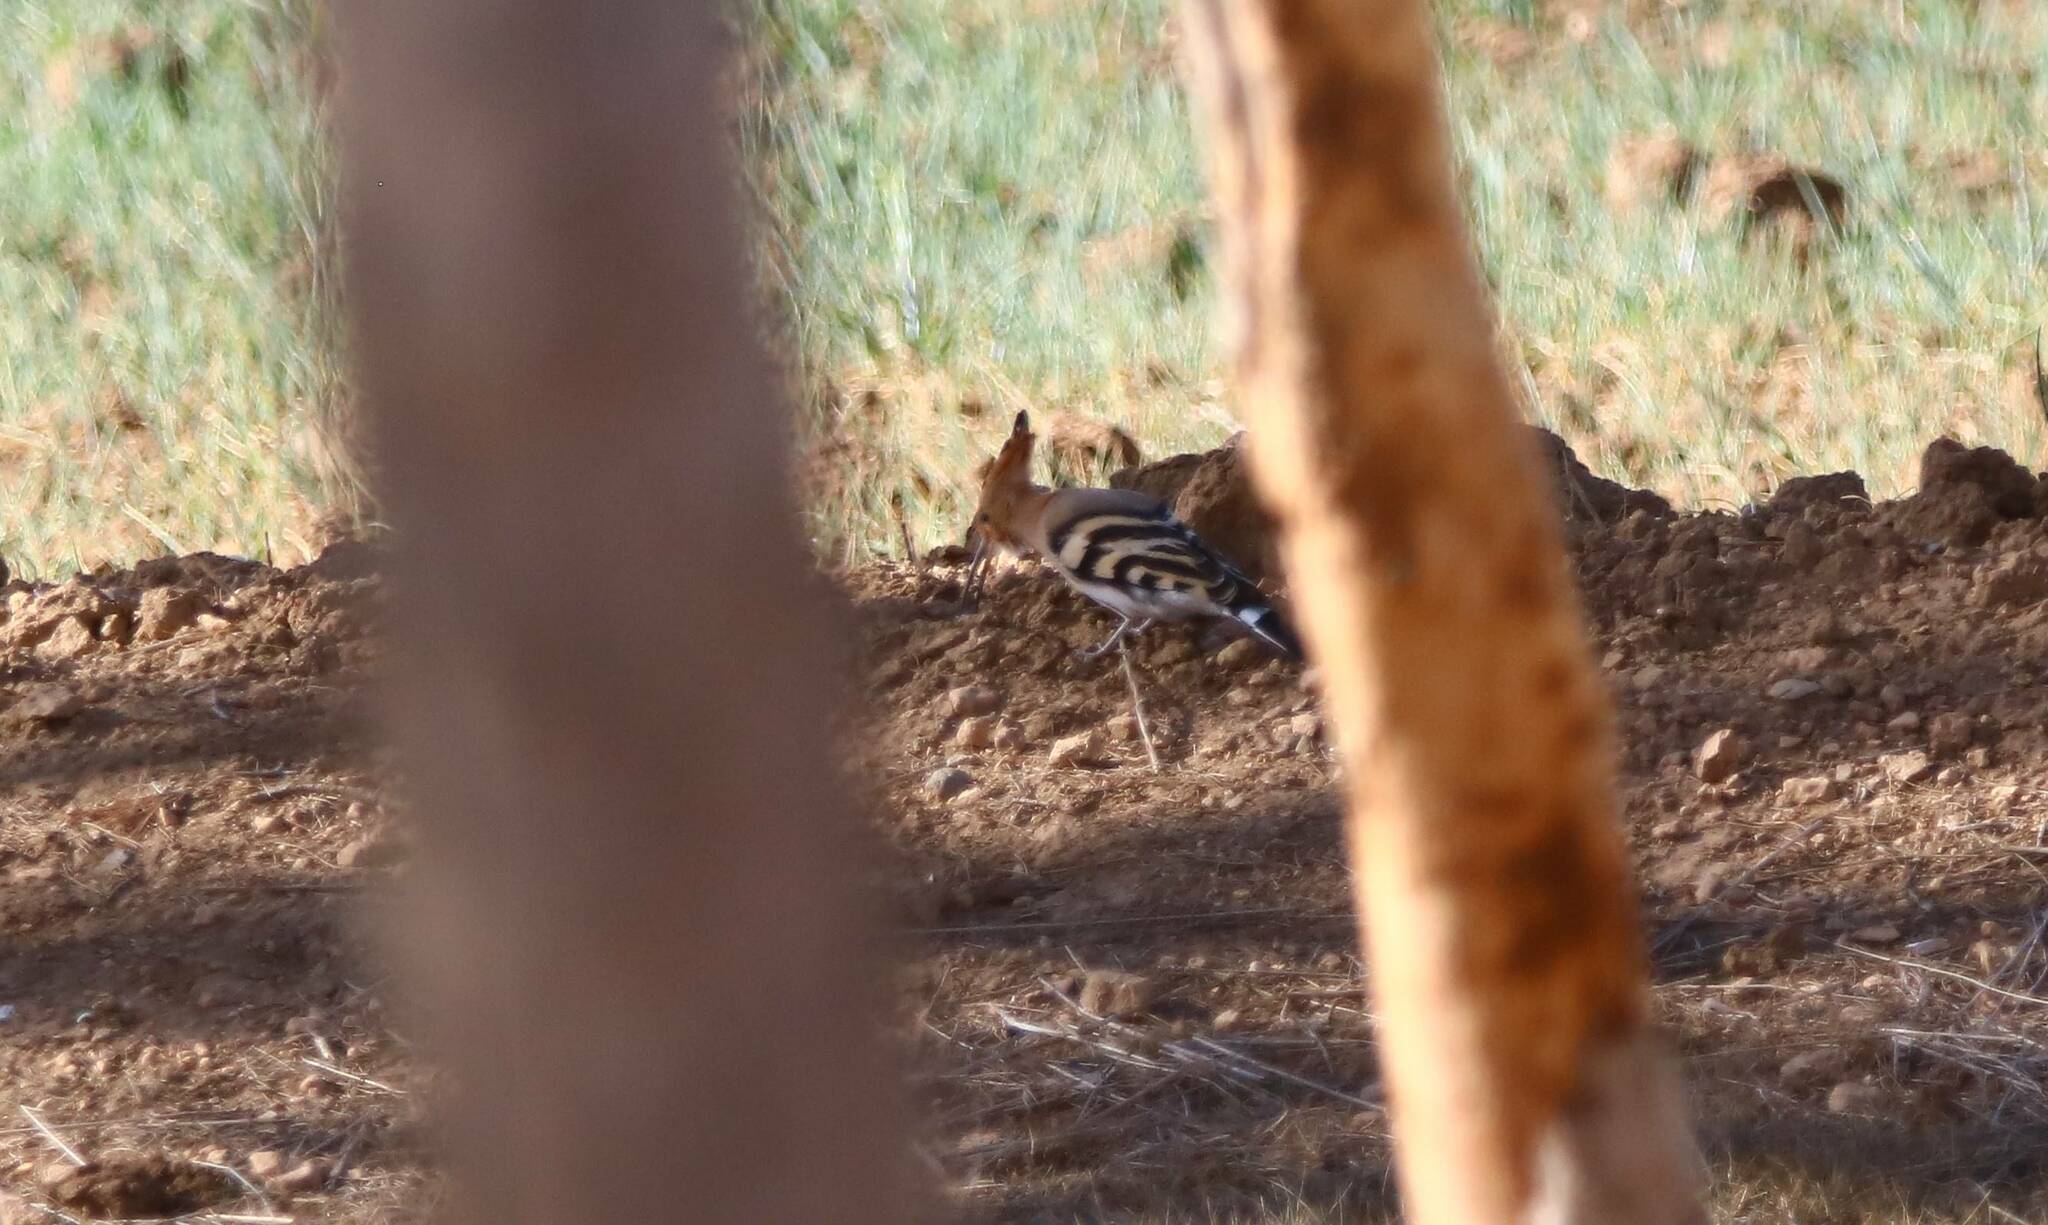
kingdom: Animalia
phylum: Chordata
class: Aves
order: Bucerotiformes
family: Upupidae
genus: Upupa
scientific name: Upupa epops
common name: Eurasian hoopoe
